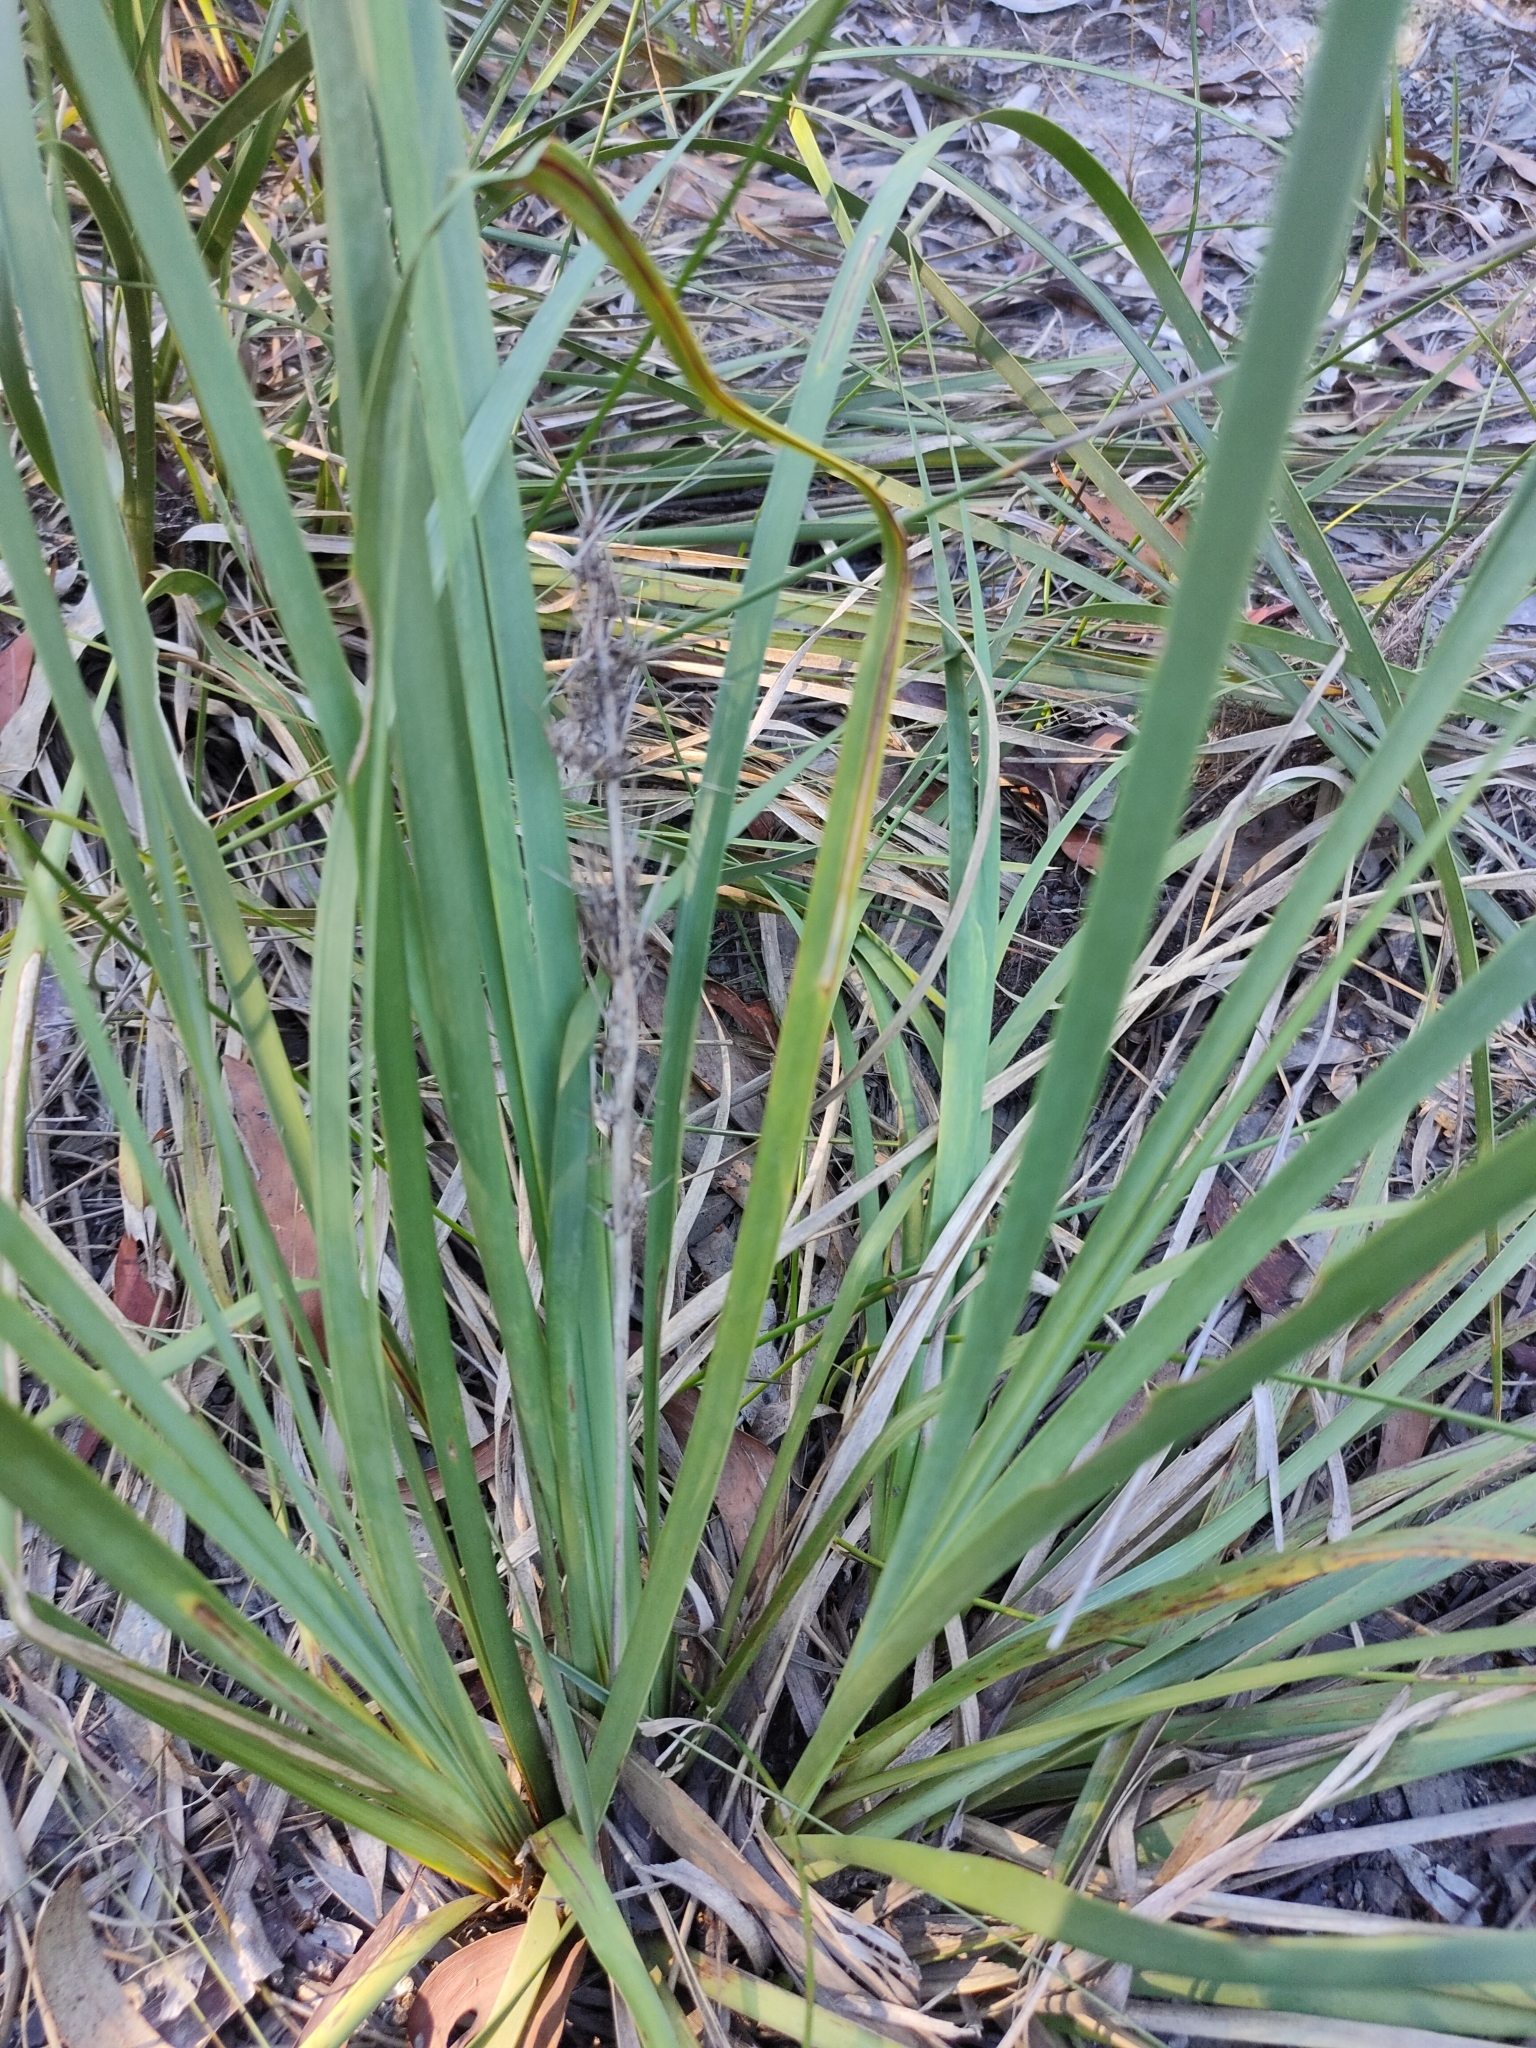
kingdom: Plantae
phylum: Tracheophyta
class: Liliopsida
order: Asparagales
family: Asparagaceae
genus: Lomandra
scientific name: Lomandra longifolia
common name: Longleaf mat-rush
